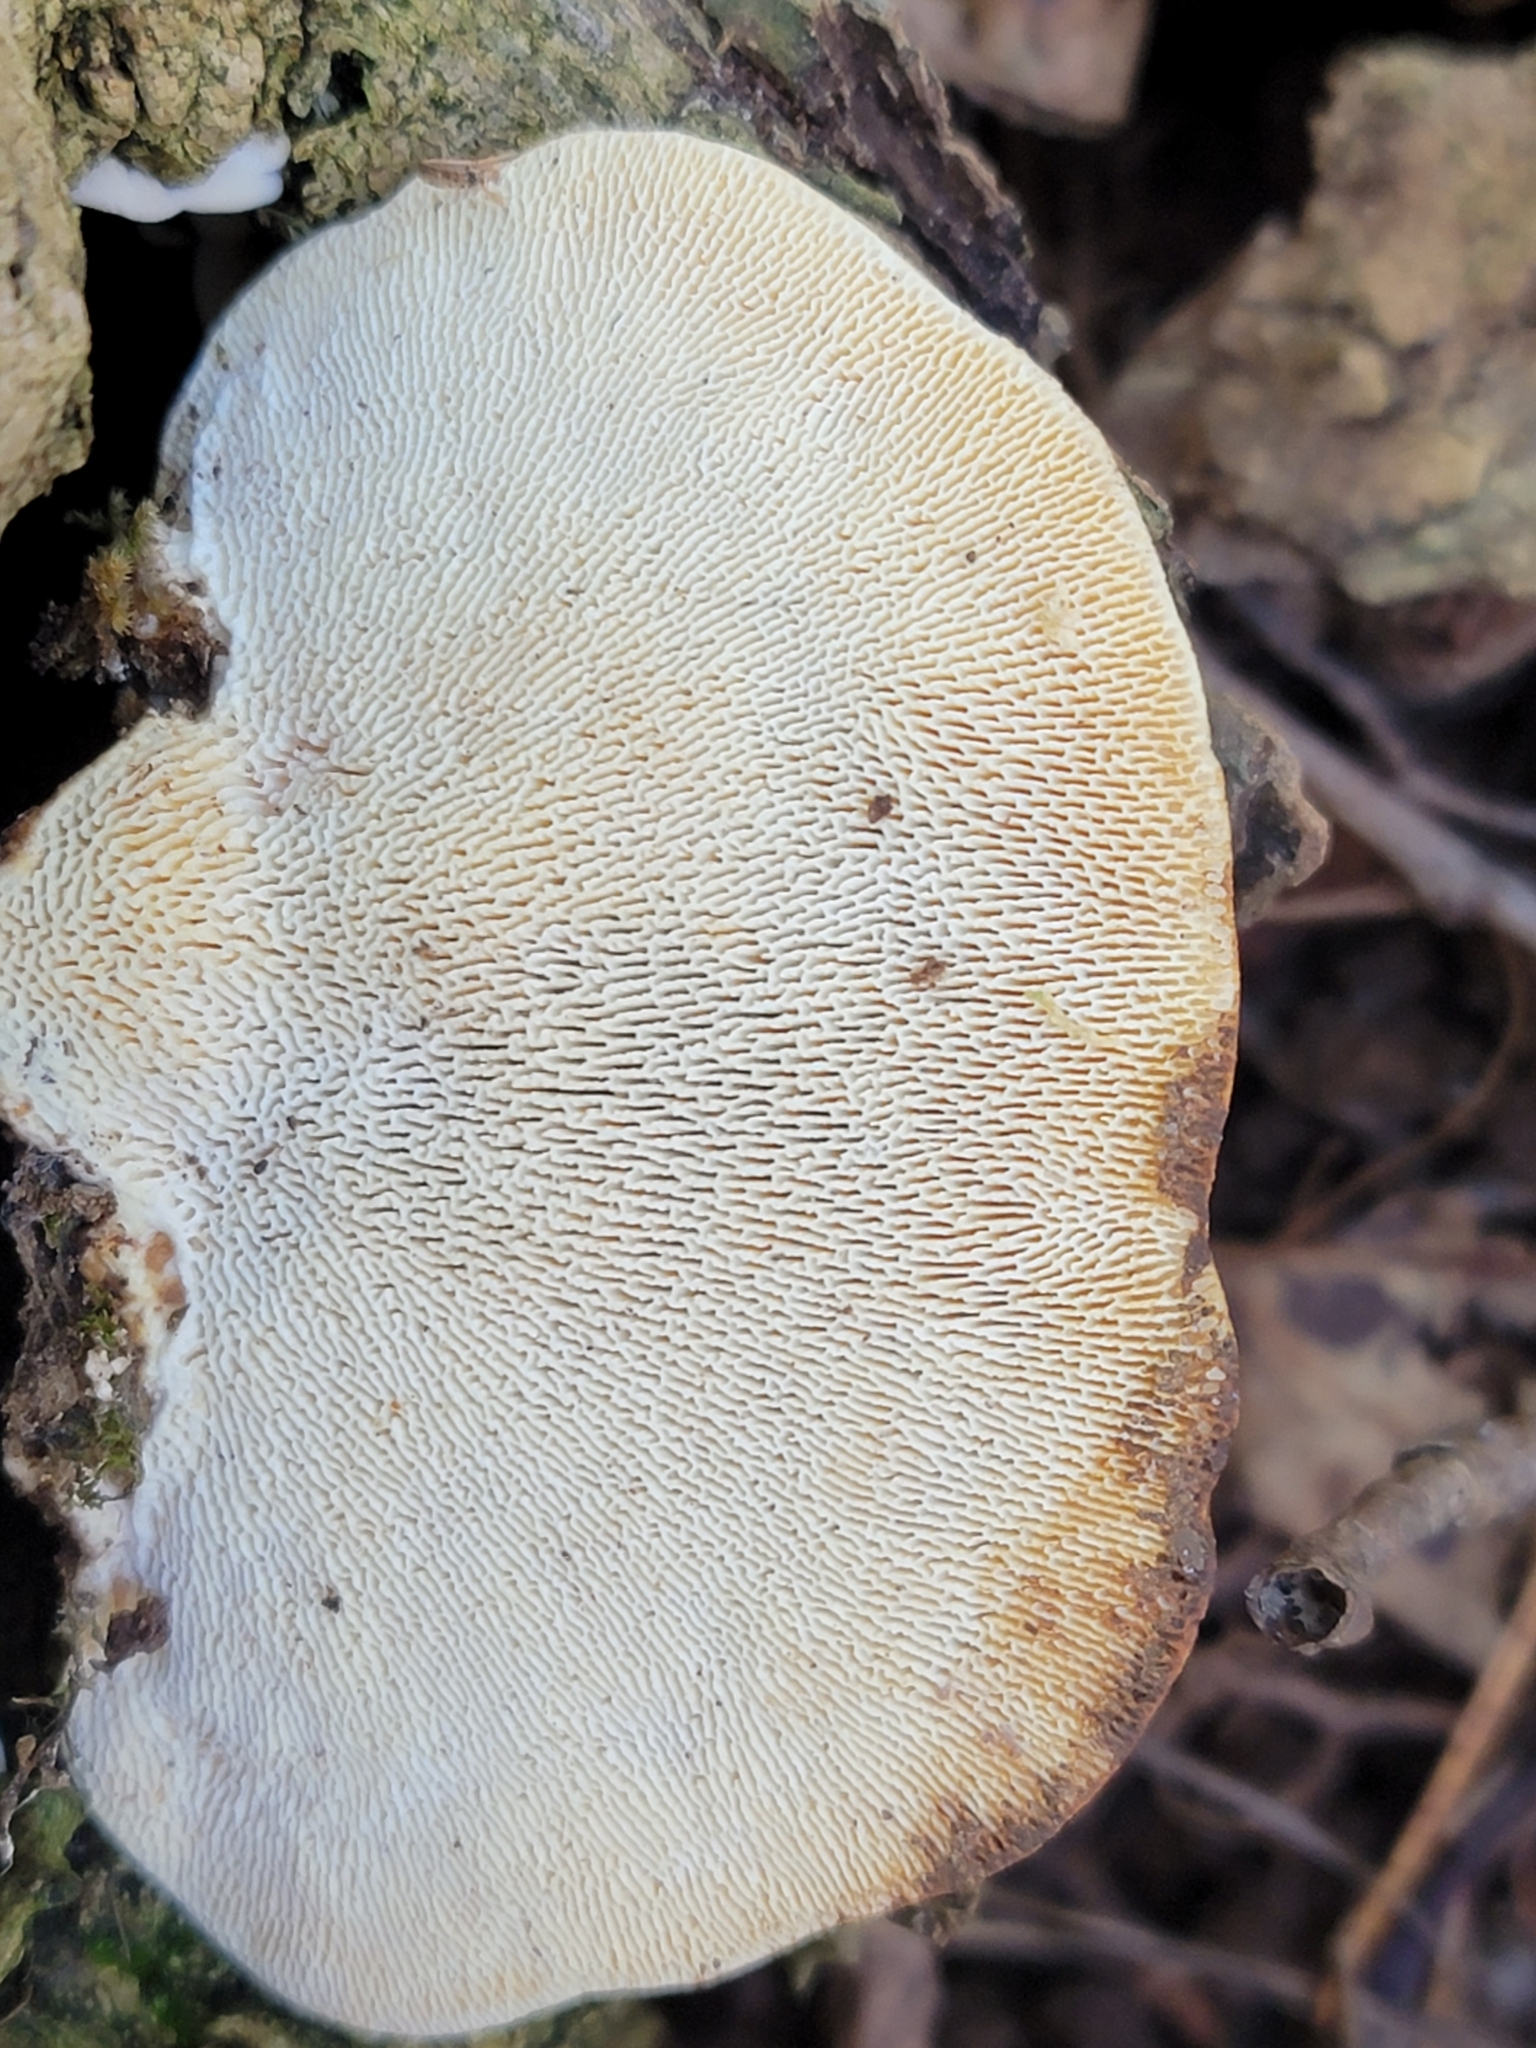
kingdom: Fungi
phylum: Basidiomycota
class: Agaricomycetes
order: Polyporales
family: Polyporaceae
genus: Trametes
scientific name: Trametes gibbosa
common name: Lumpy bracket
